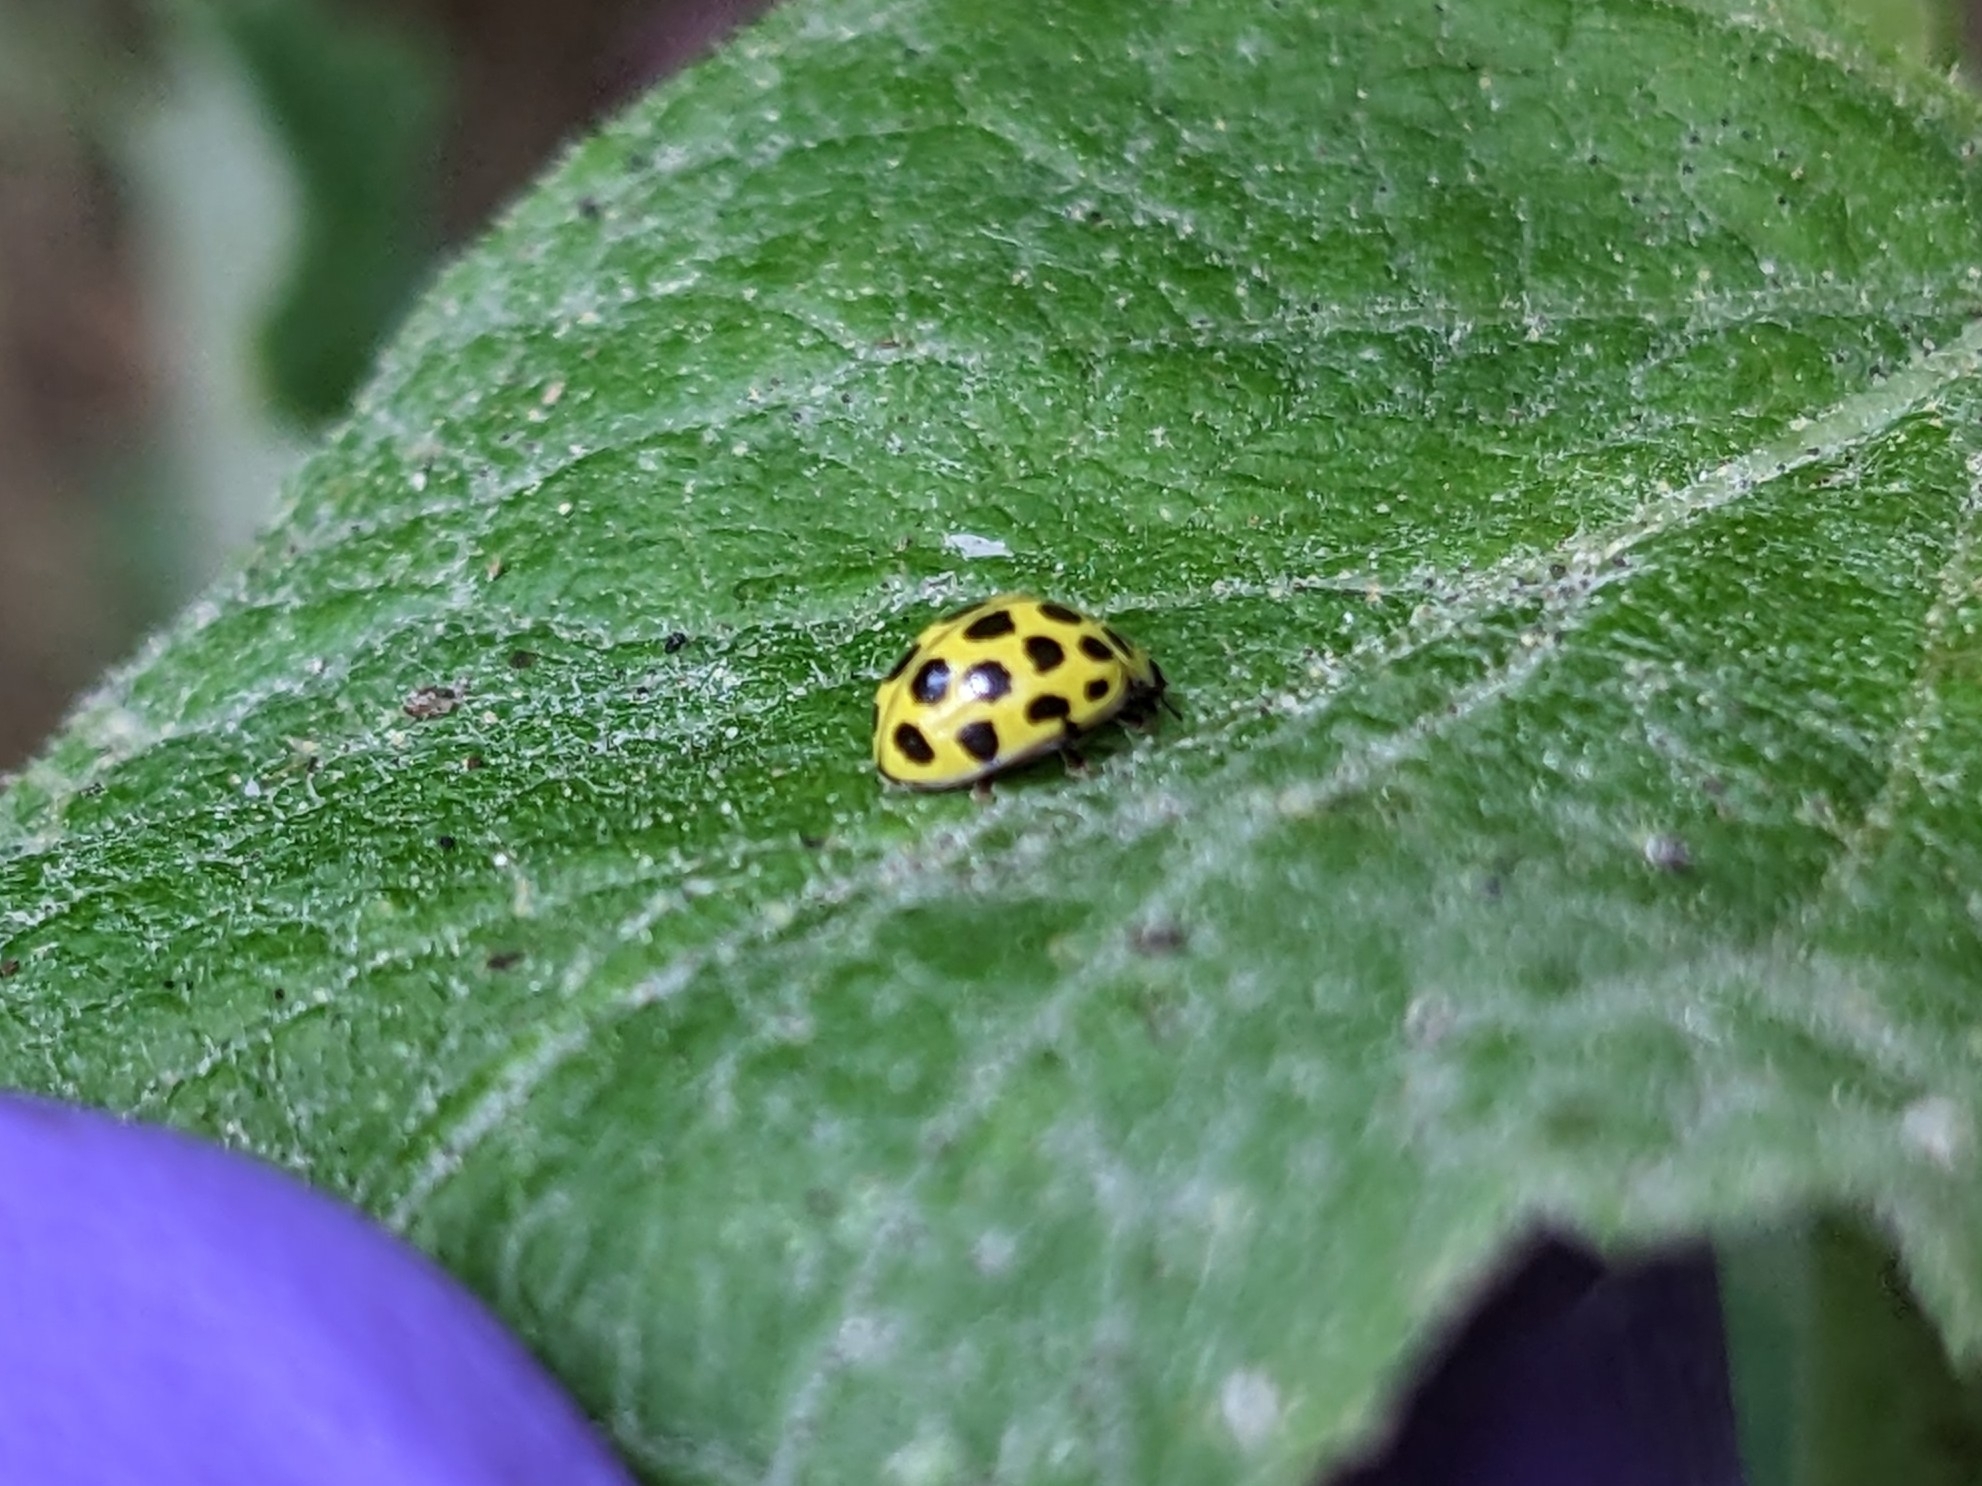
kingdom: Animalia
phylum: Arthropoda
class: Insecta
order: Coleoptera
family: Coccinellidae
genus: Psyllobora
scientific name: Psyllobora vigintiduopunctata
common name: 22-spot ladybird
